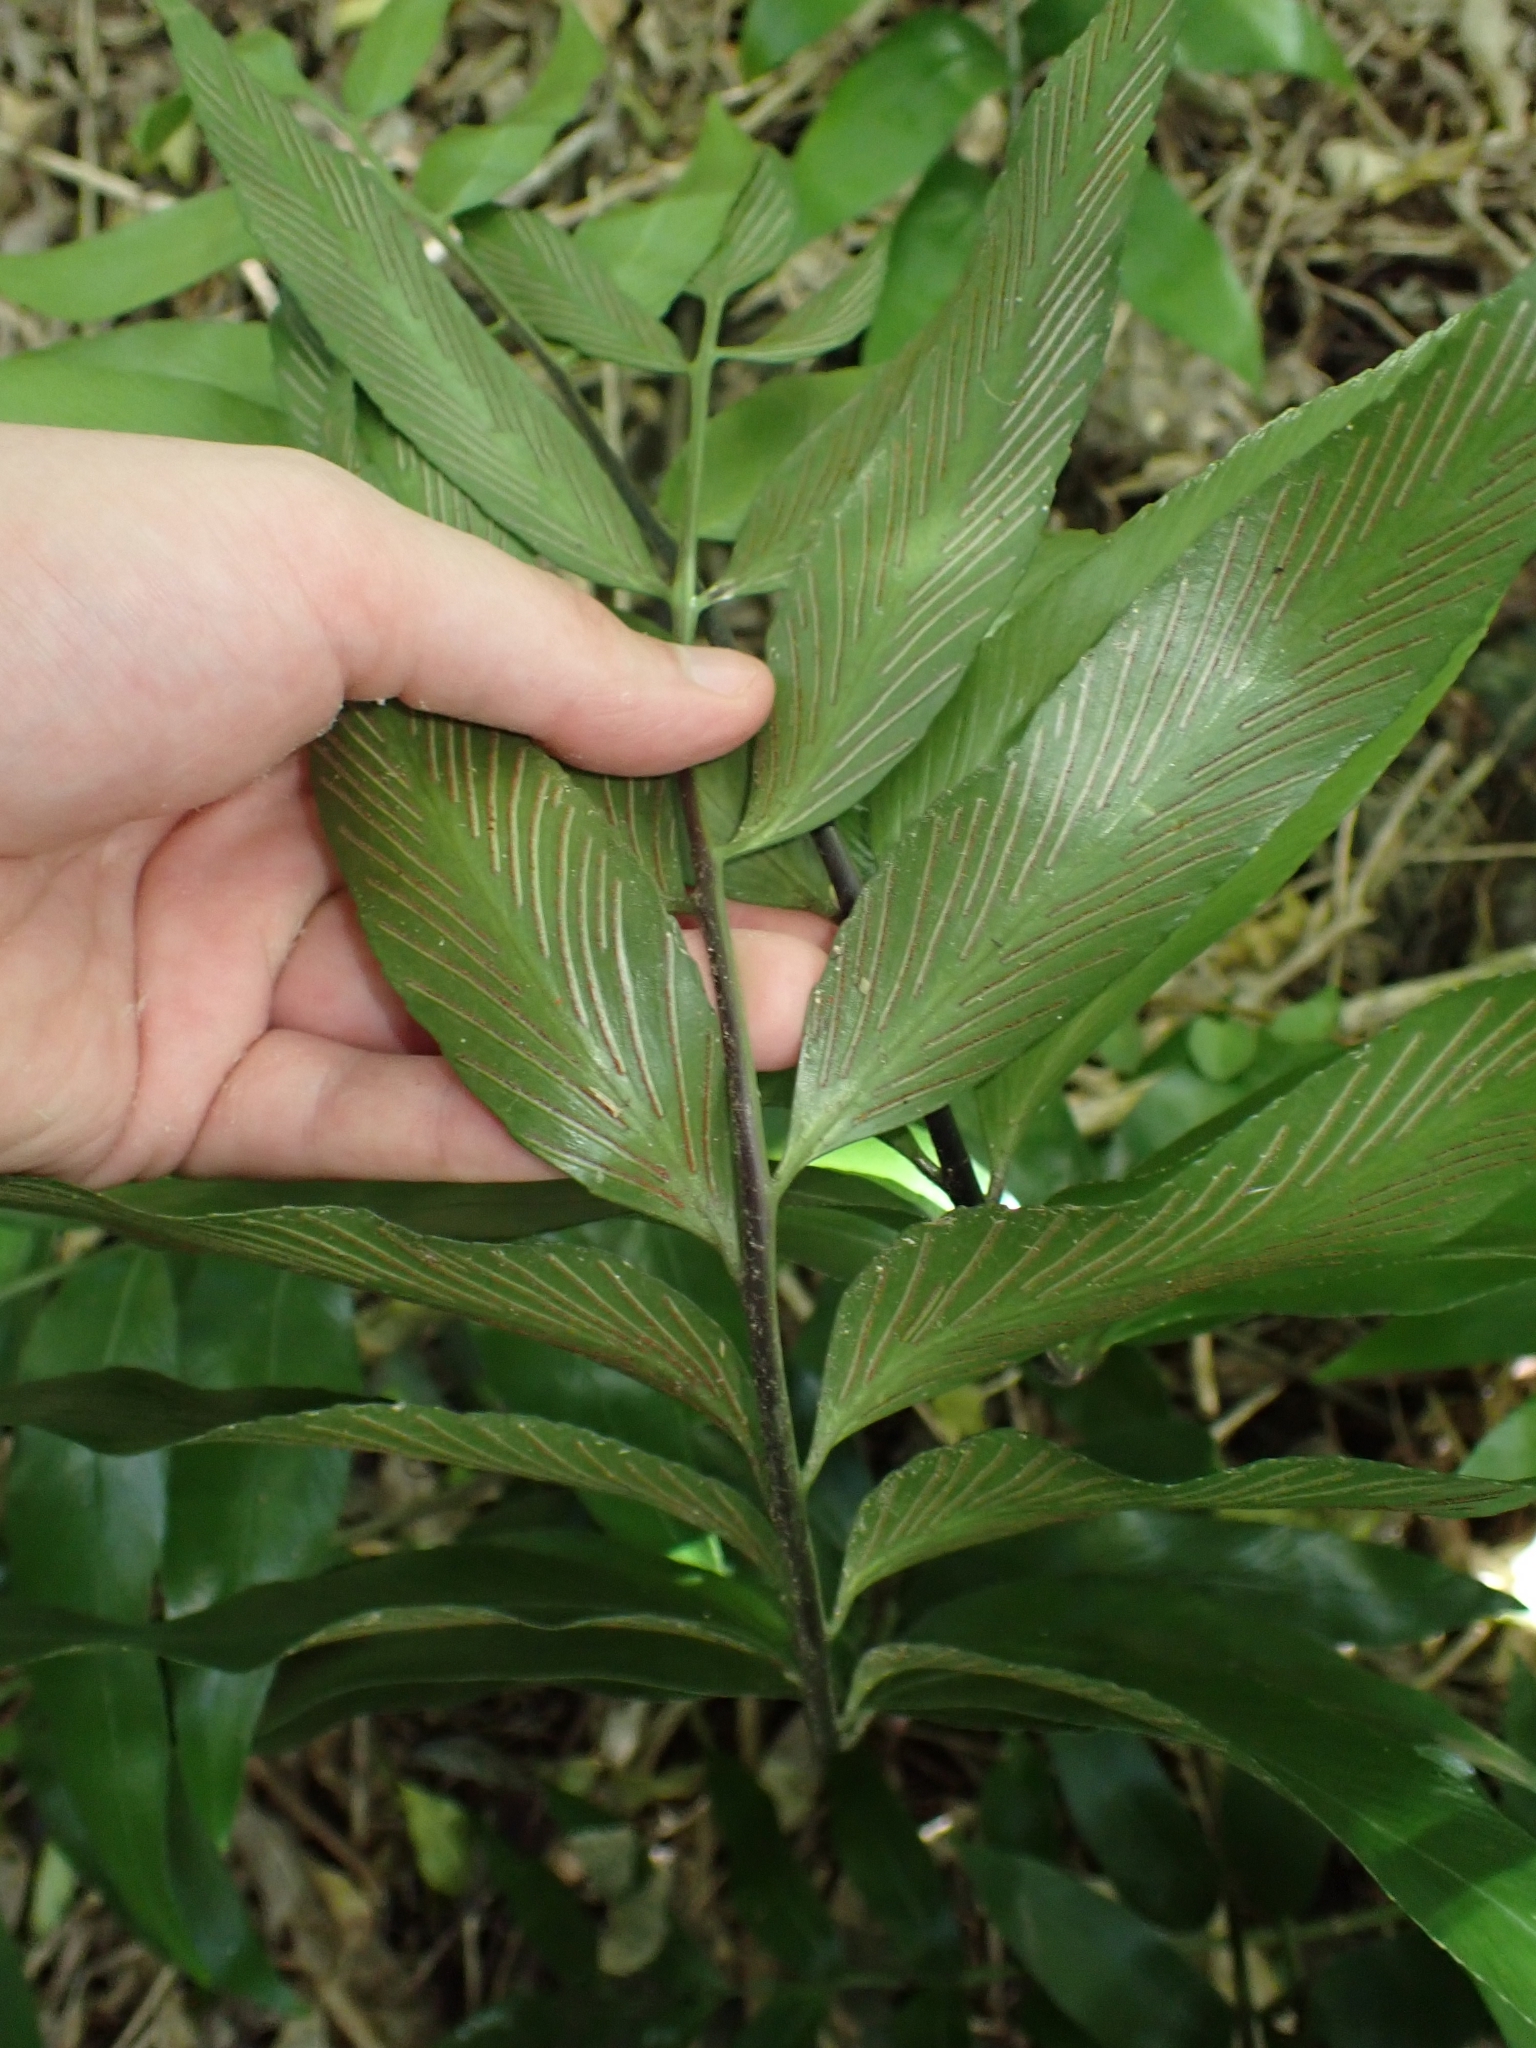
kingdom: Plantae
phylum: Tracheophyta
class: Polypodiopsida
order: Polypodiales
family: Aspleniaceae
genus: Asplenium
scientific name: Asplenium oblongifolium
